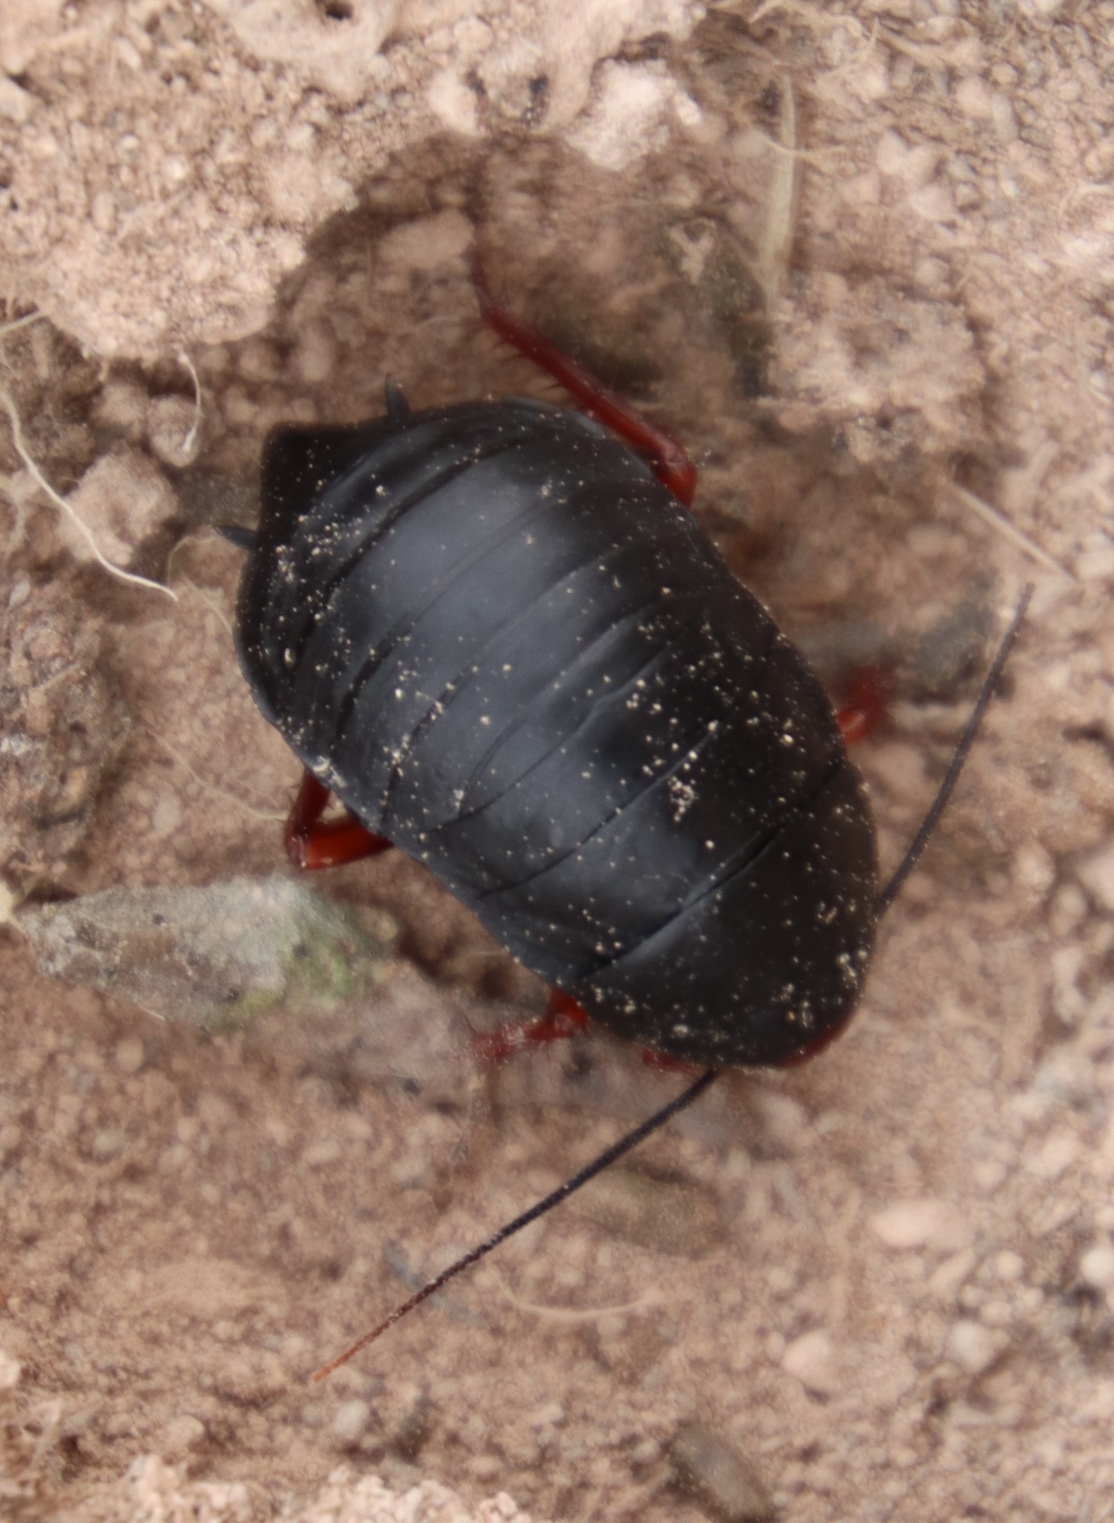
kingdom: Animalia
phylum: Arthropoda
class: Insecta
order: Blattodea
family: Blattidae
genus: Deropeltis
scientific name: Deropeltis erythrocephala
